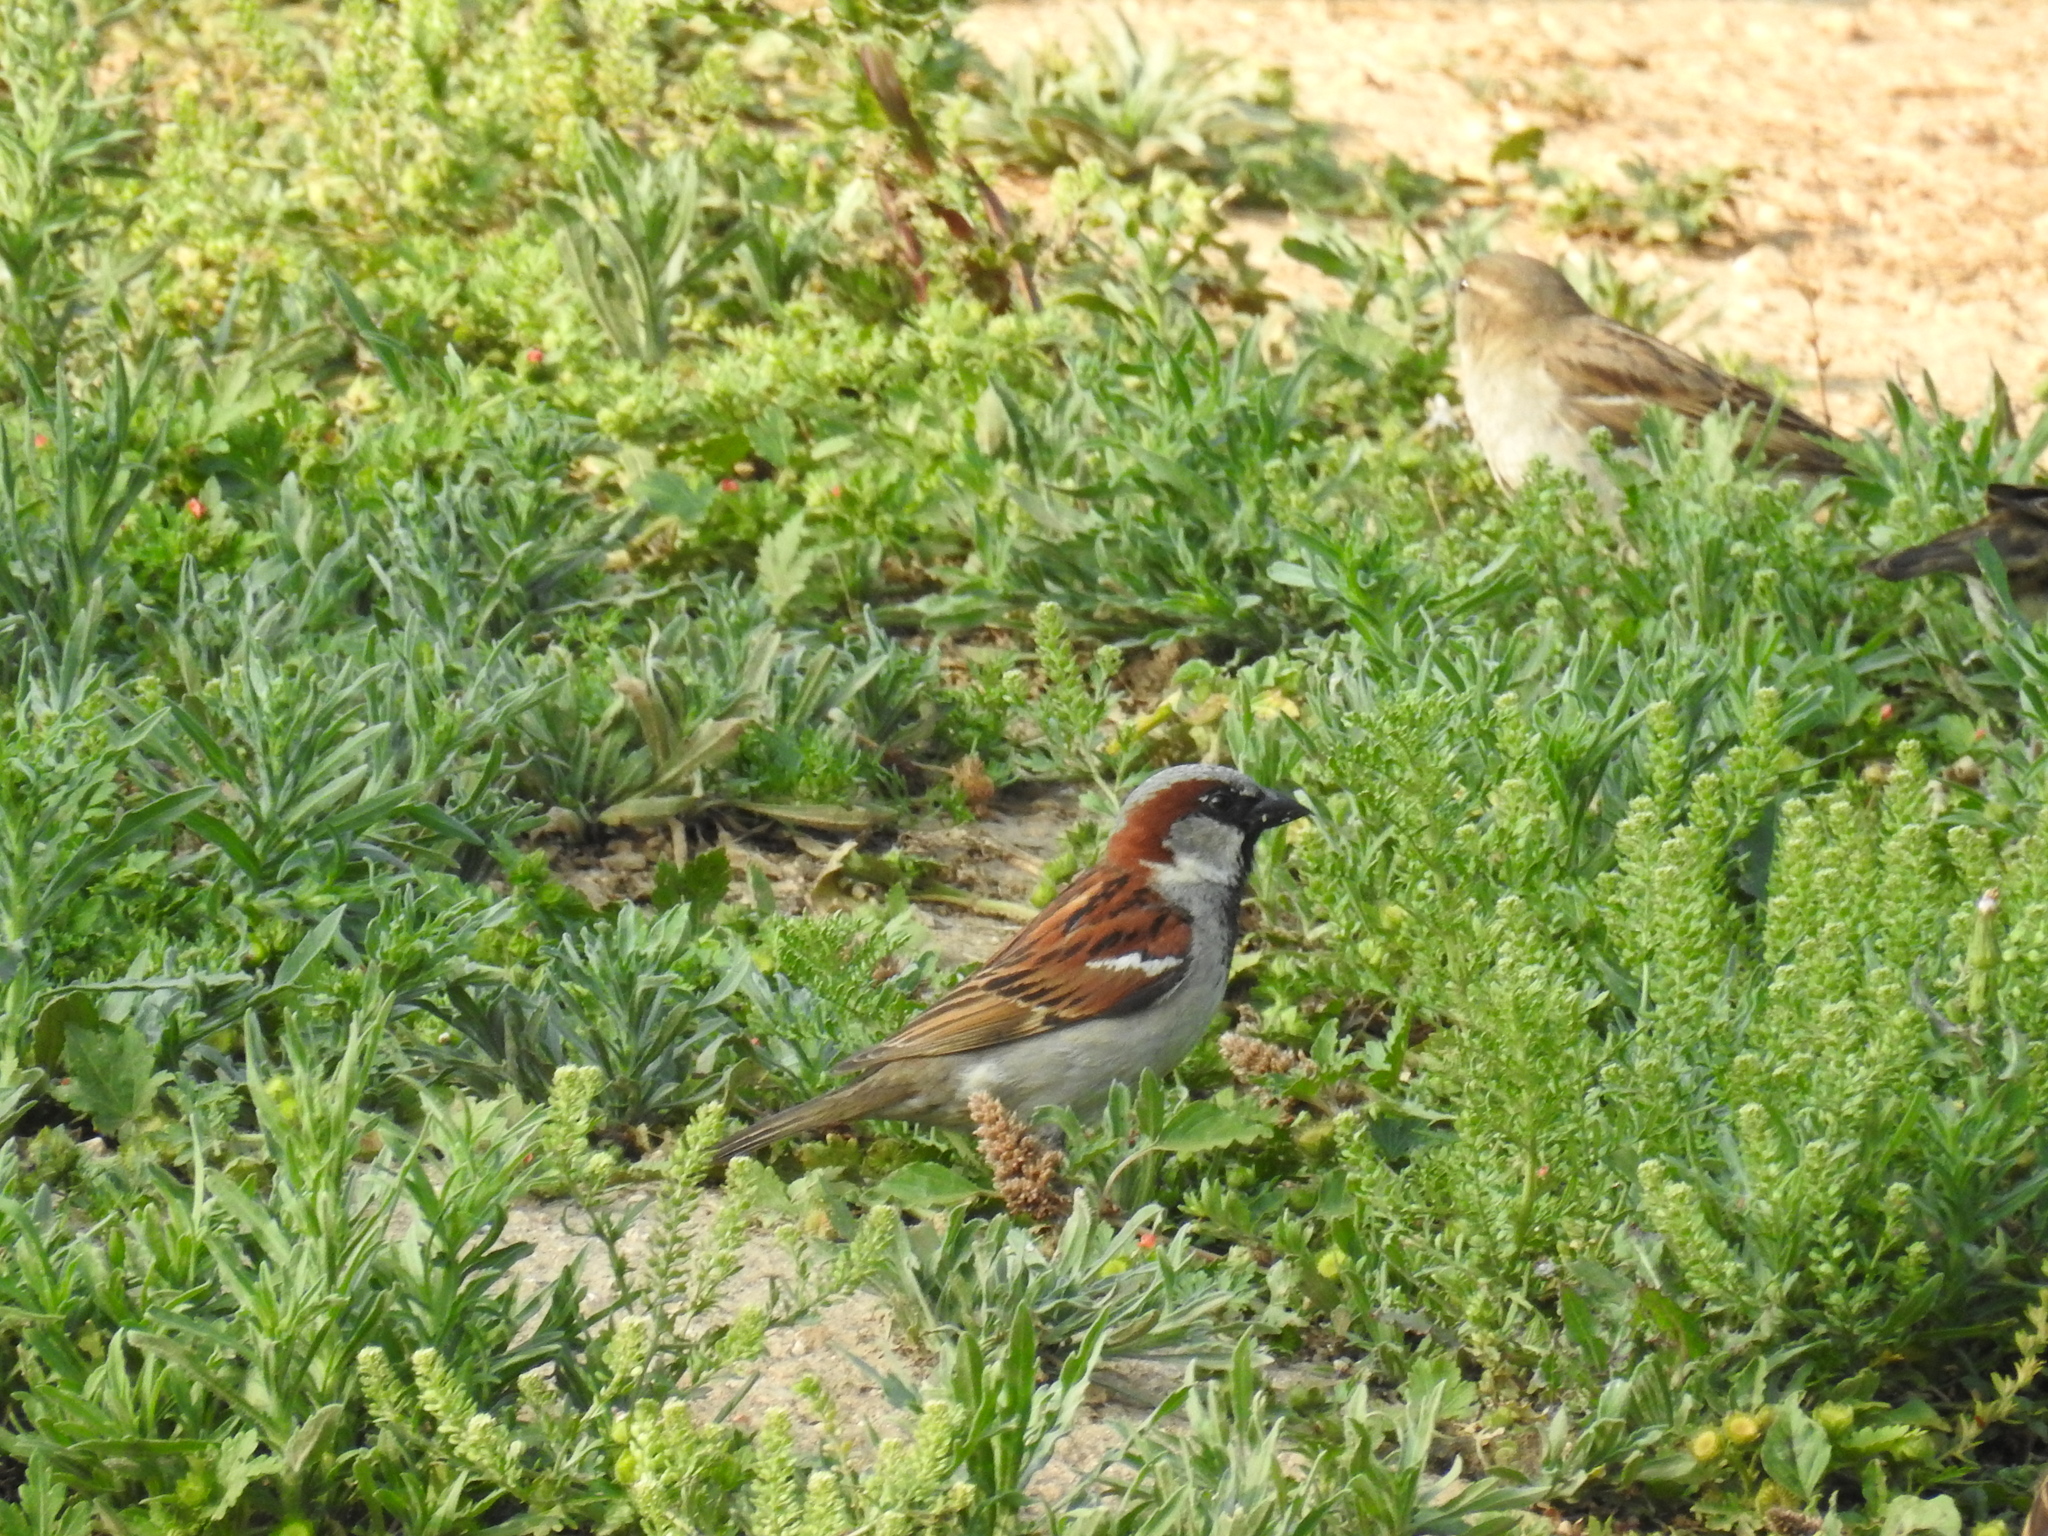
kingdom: Animalia
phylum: Chordata
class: Aves
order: Passeriformes
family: Passeridae
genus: Passer
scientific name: Passer domesticus
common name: House sparrow
